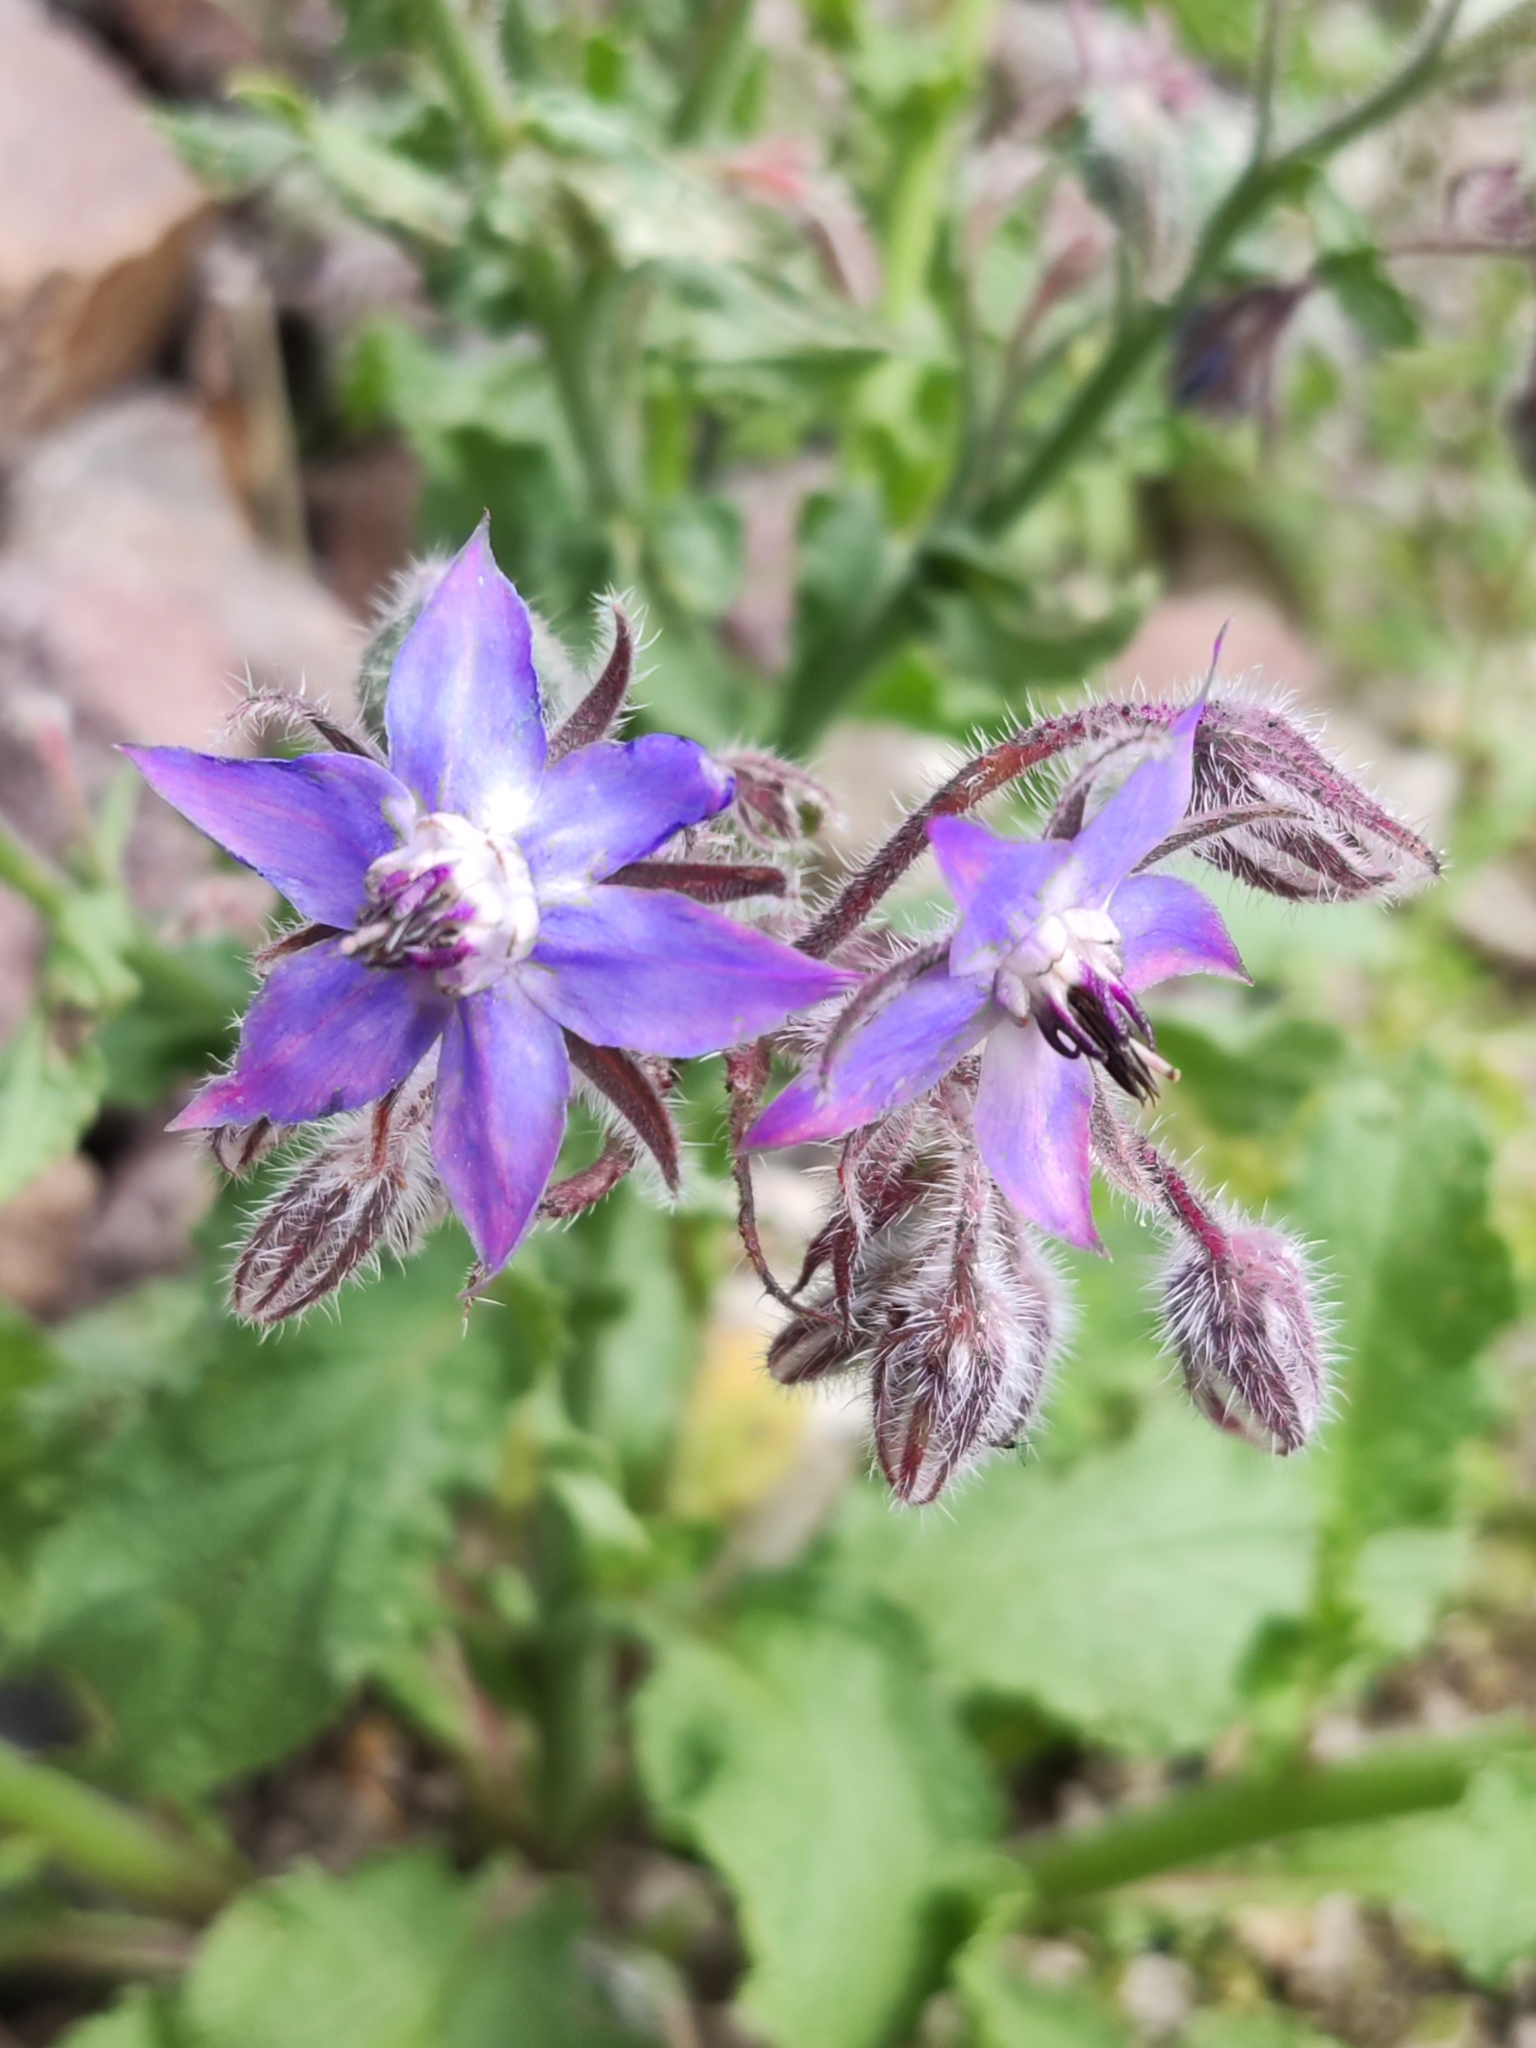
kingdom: Plantae
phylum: Tracheophyta
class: Magnoliopsida
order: Boraginales
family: Boraginaceae
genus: Borago
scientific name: Borago officinalis
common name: Borage
